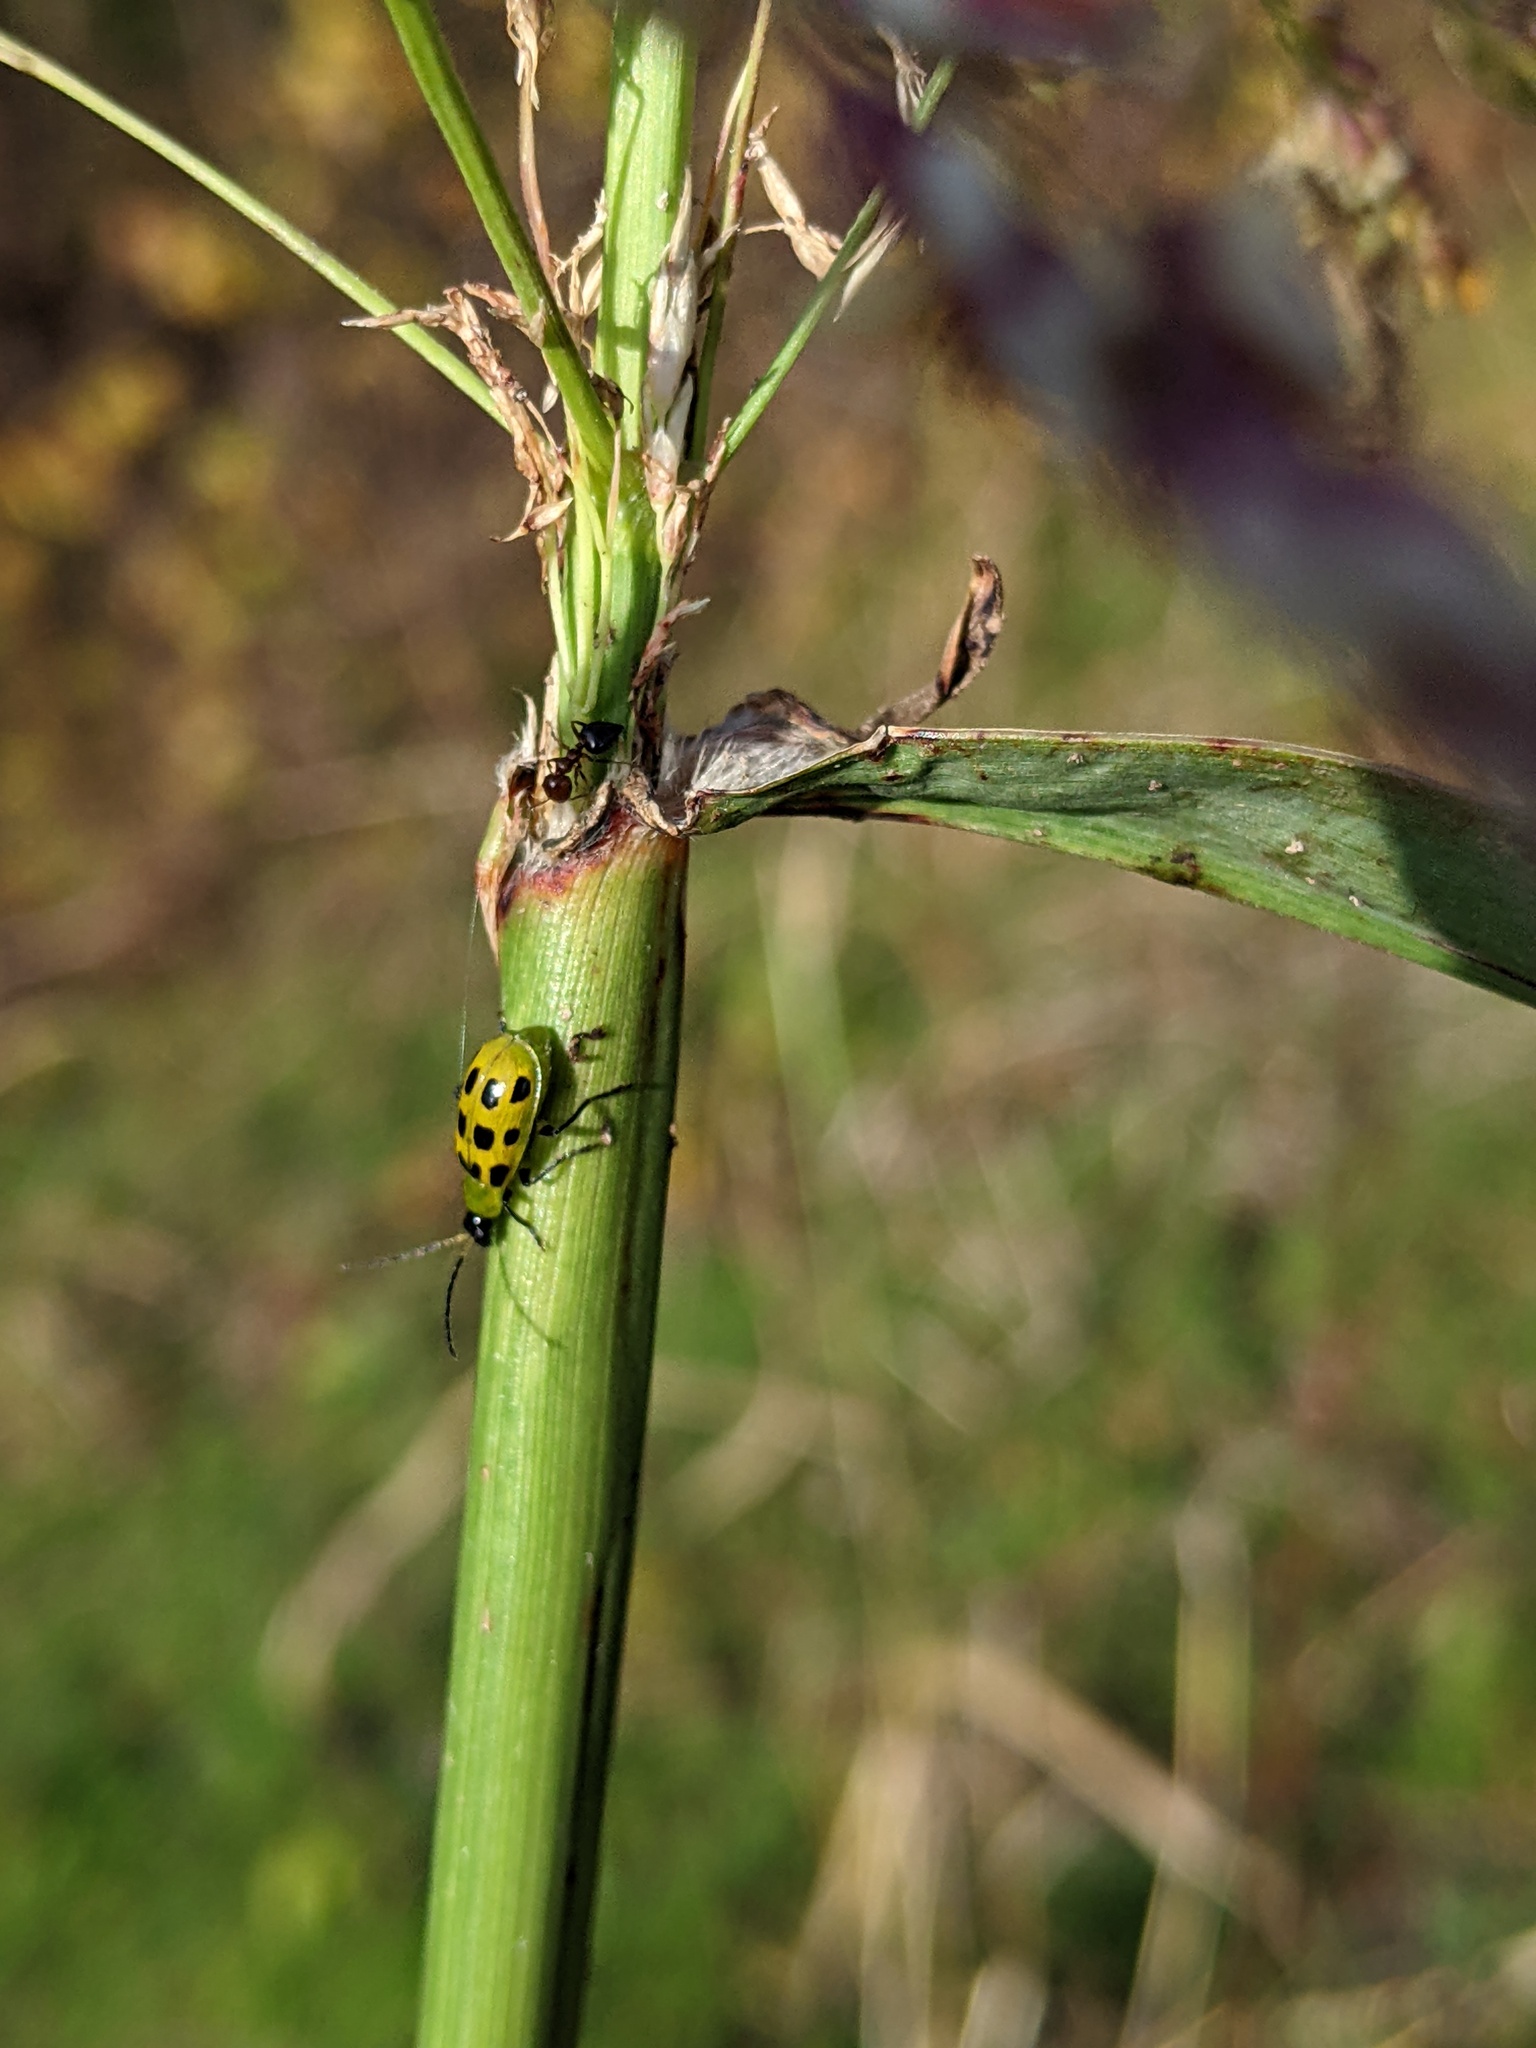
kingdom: Animalia
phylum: Arthropoda
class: Insecta
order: Coleoptera
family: Chrysomelidae
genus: Diabrotica
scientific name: Diabrotica undecimpunctata
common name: Spotted cucumber beetle
